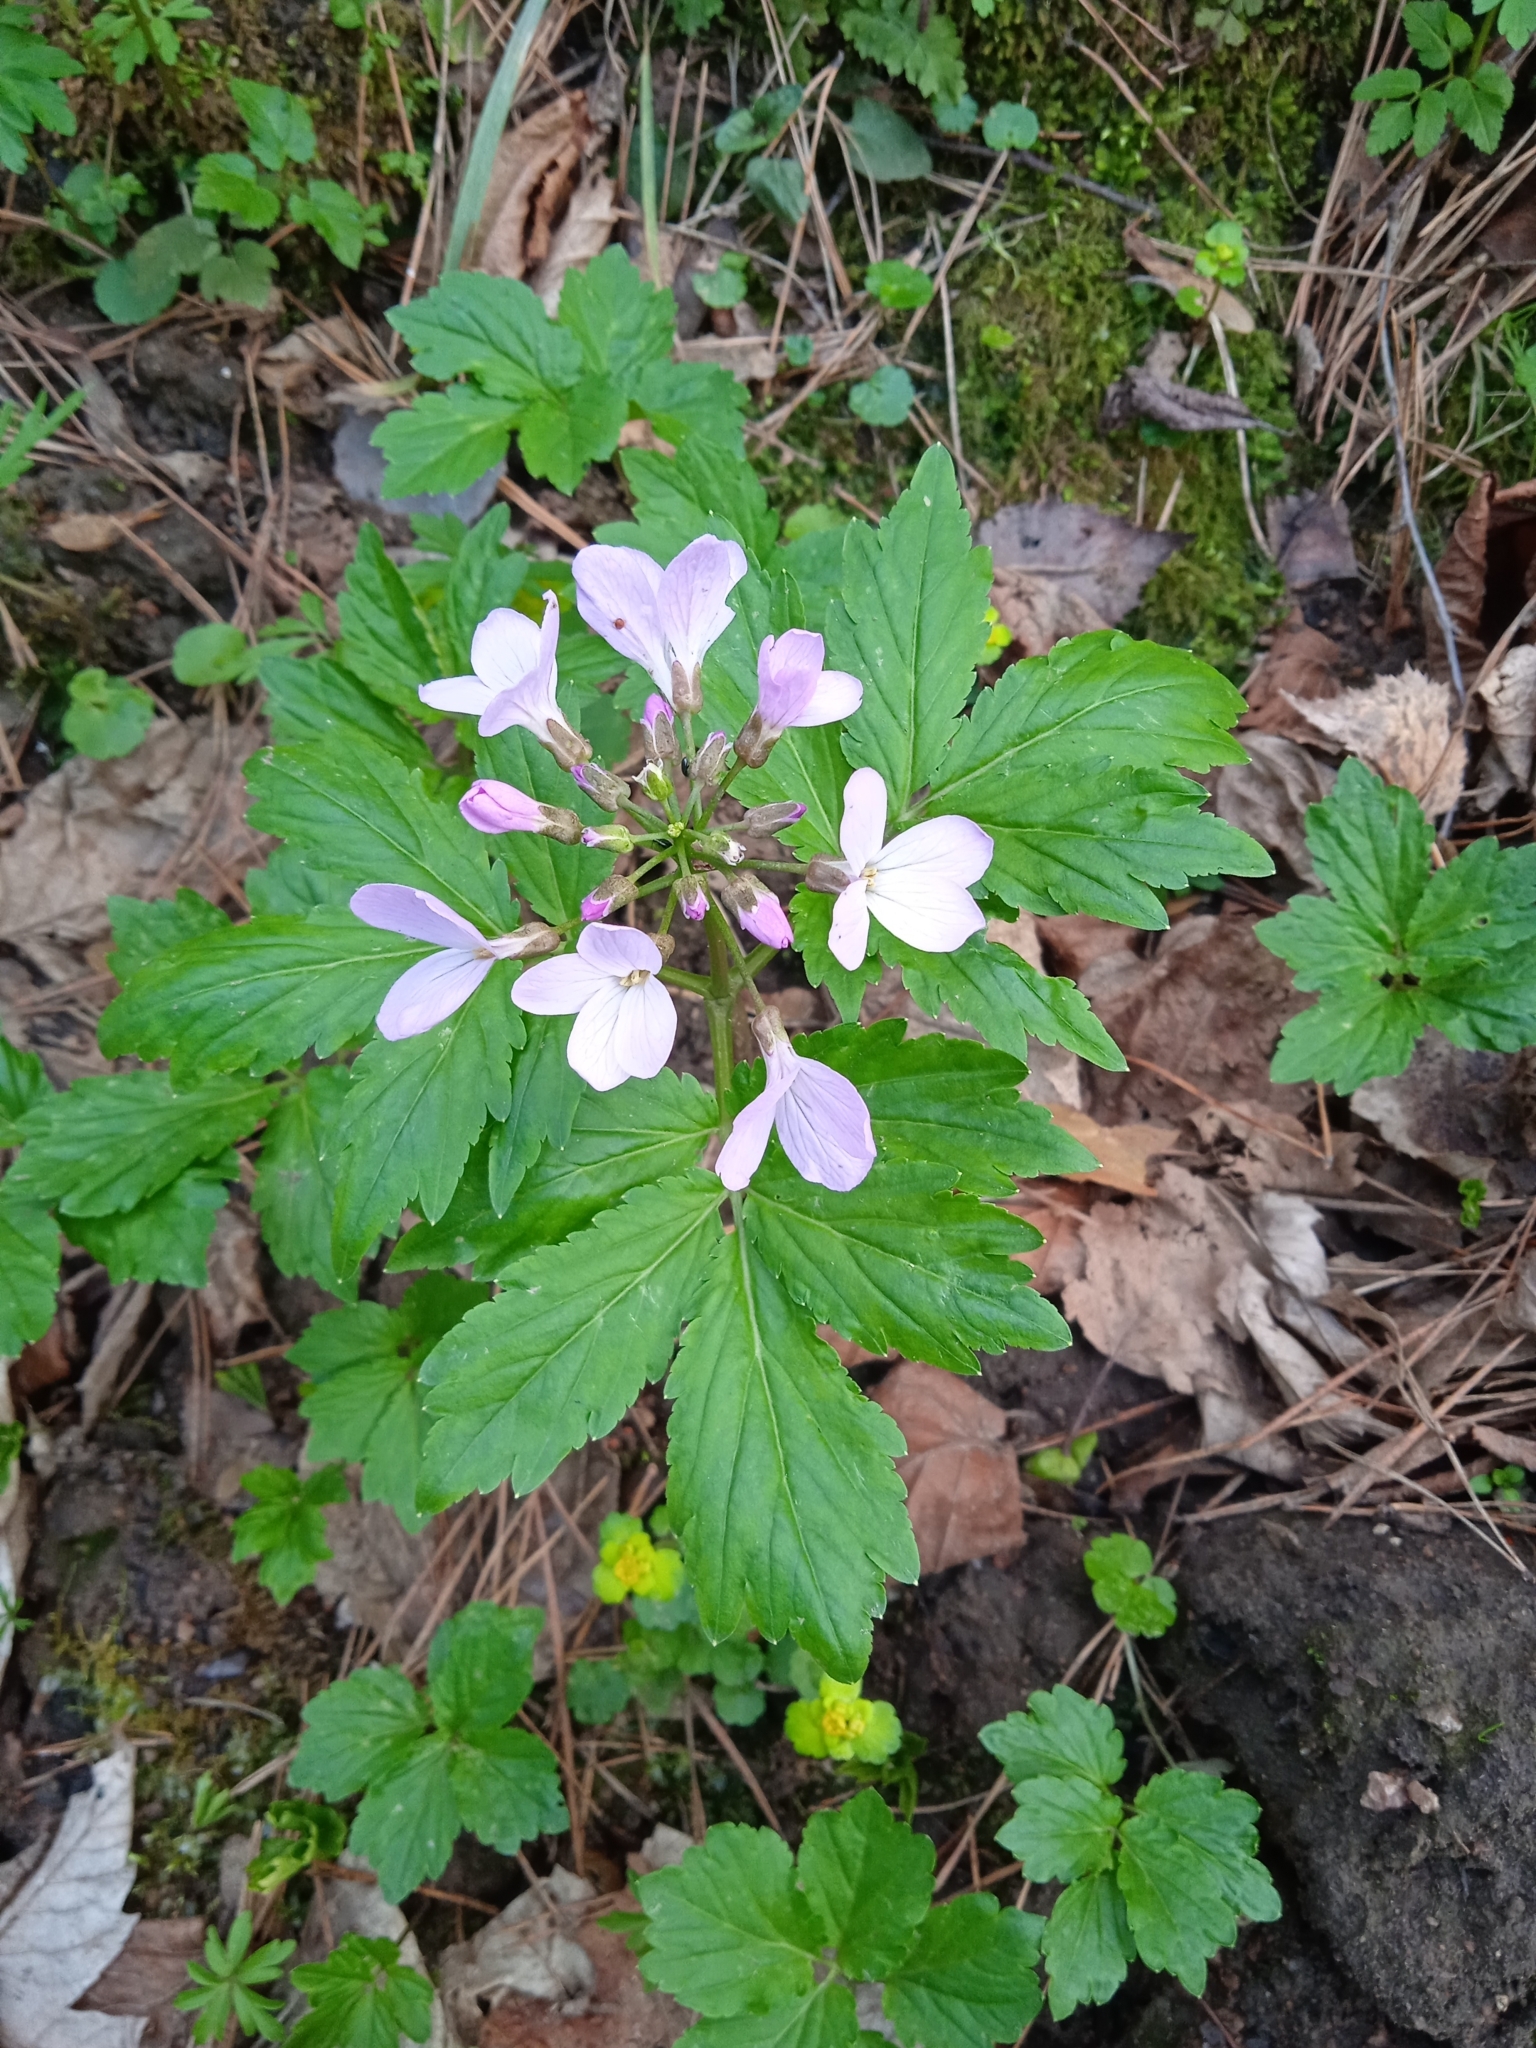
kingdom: Plantae
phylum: Tracheophyta
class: Magnoliopsida
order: Brassicales
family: Brassicaceae
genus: Cardamine
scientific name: Cardamine quinquefolia
